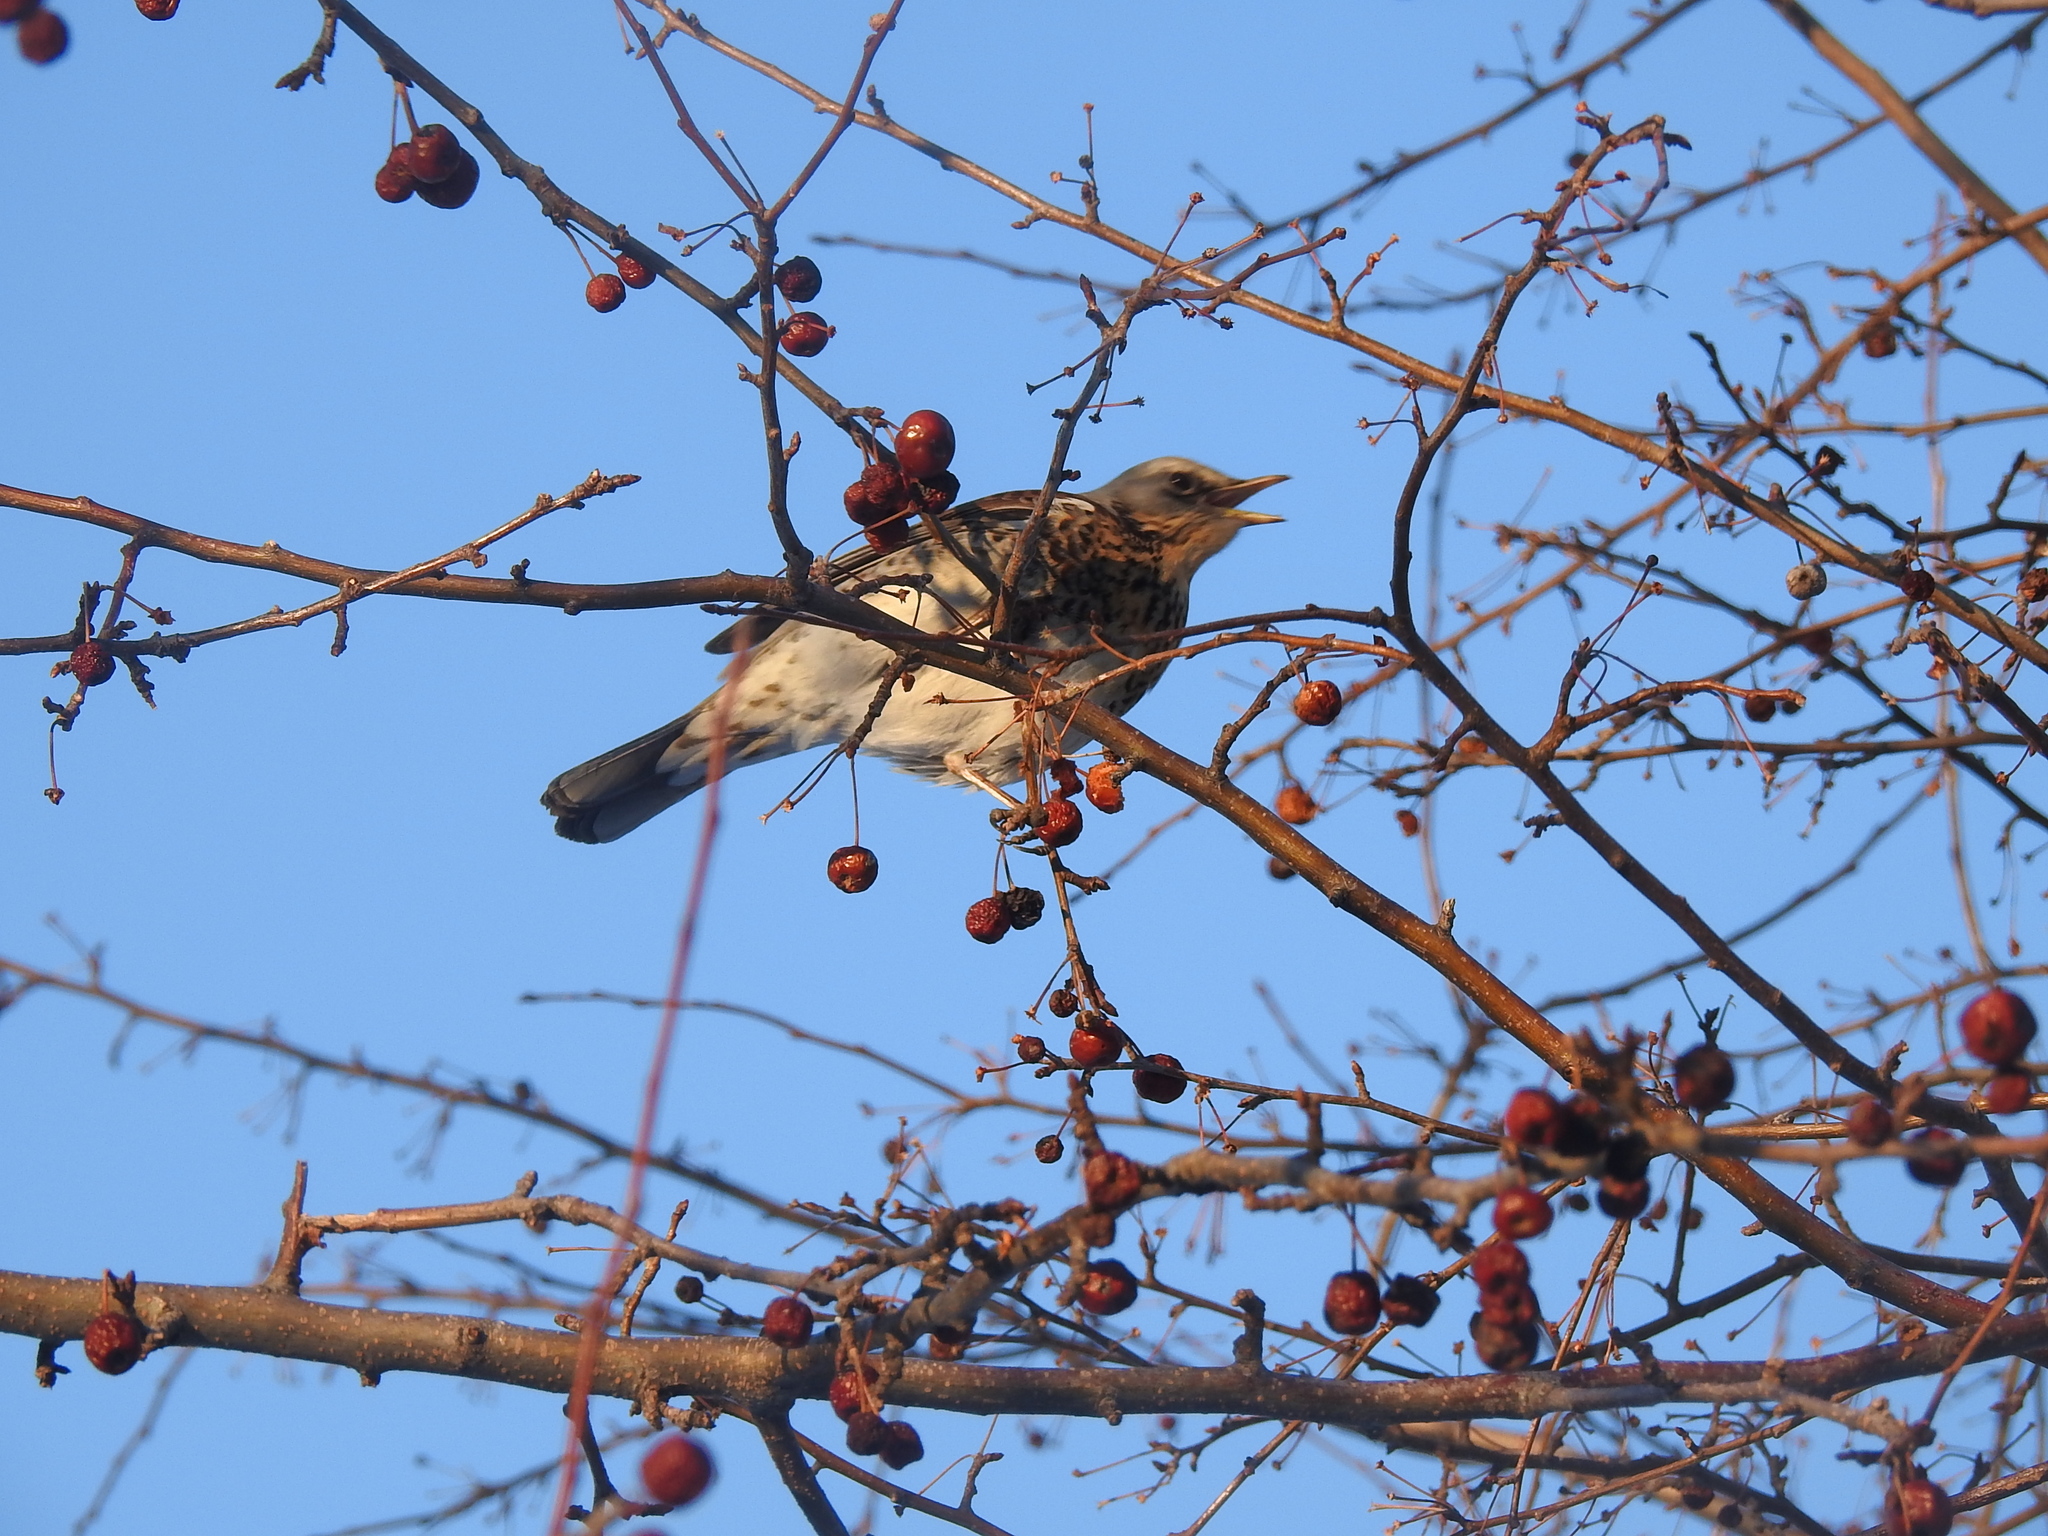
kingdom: Animalia
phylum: Chordata
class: Aves
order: Passeriformes
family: Turdidae
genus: Turdus
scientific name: Turdus pilaris
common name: Fieldfare
